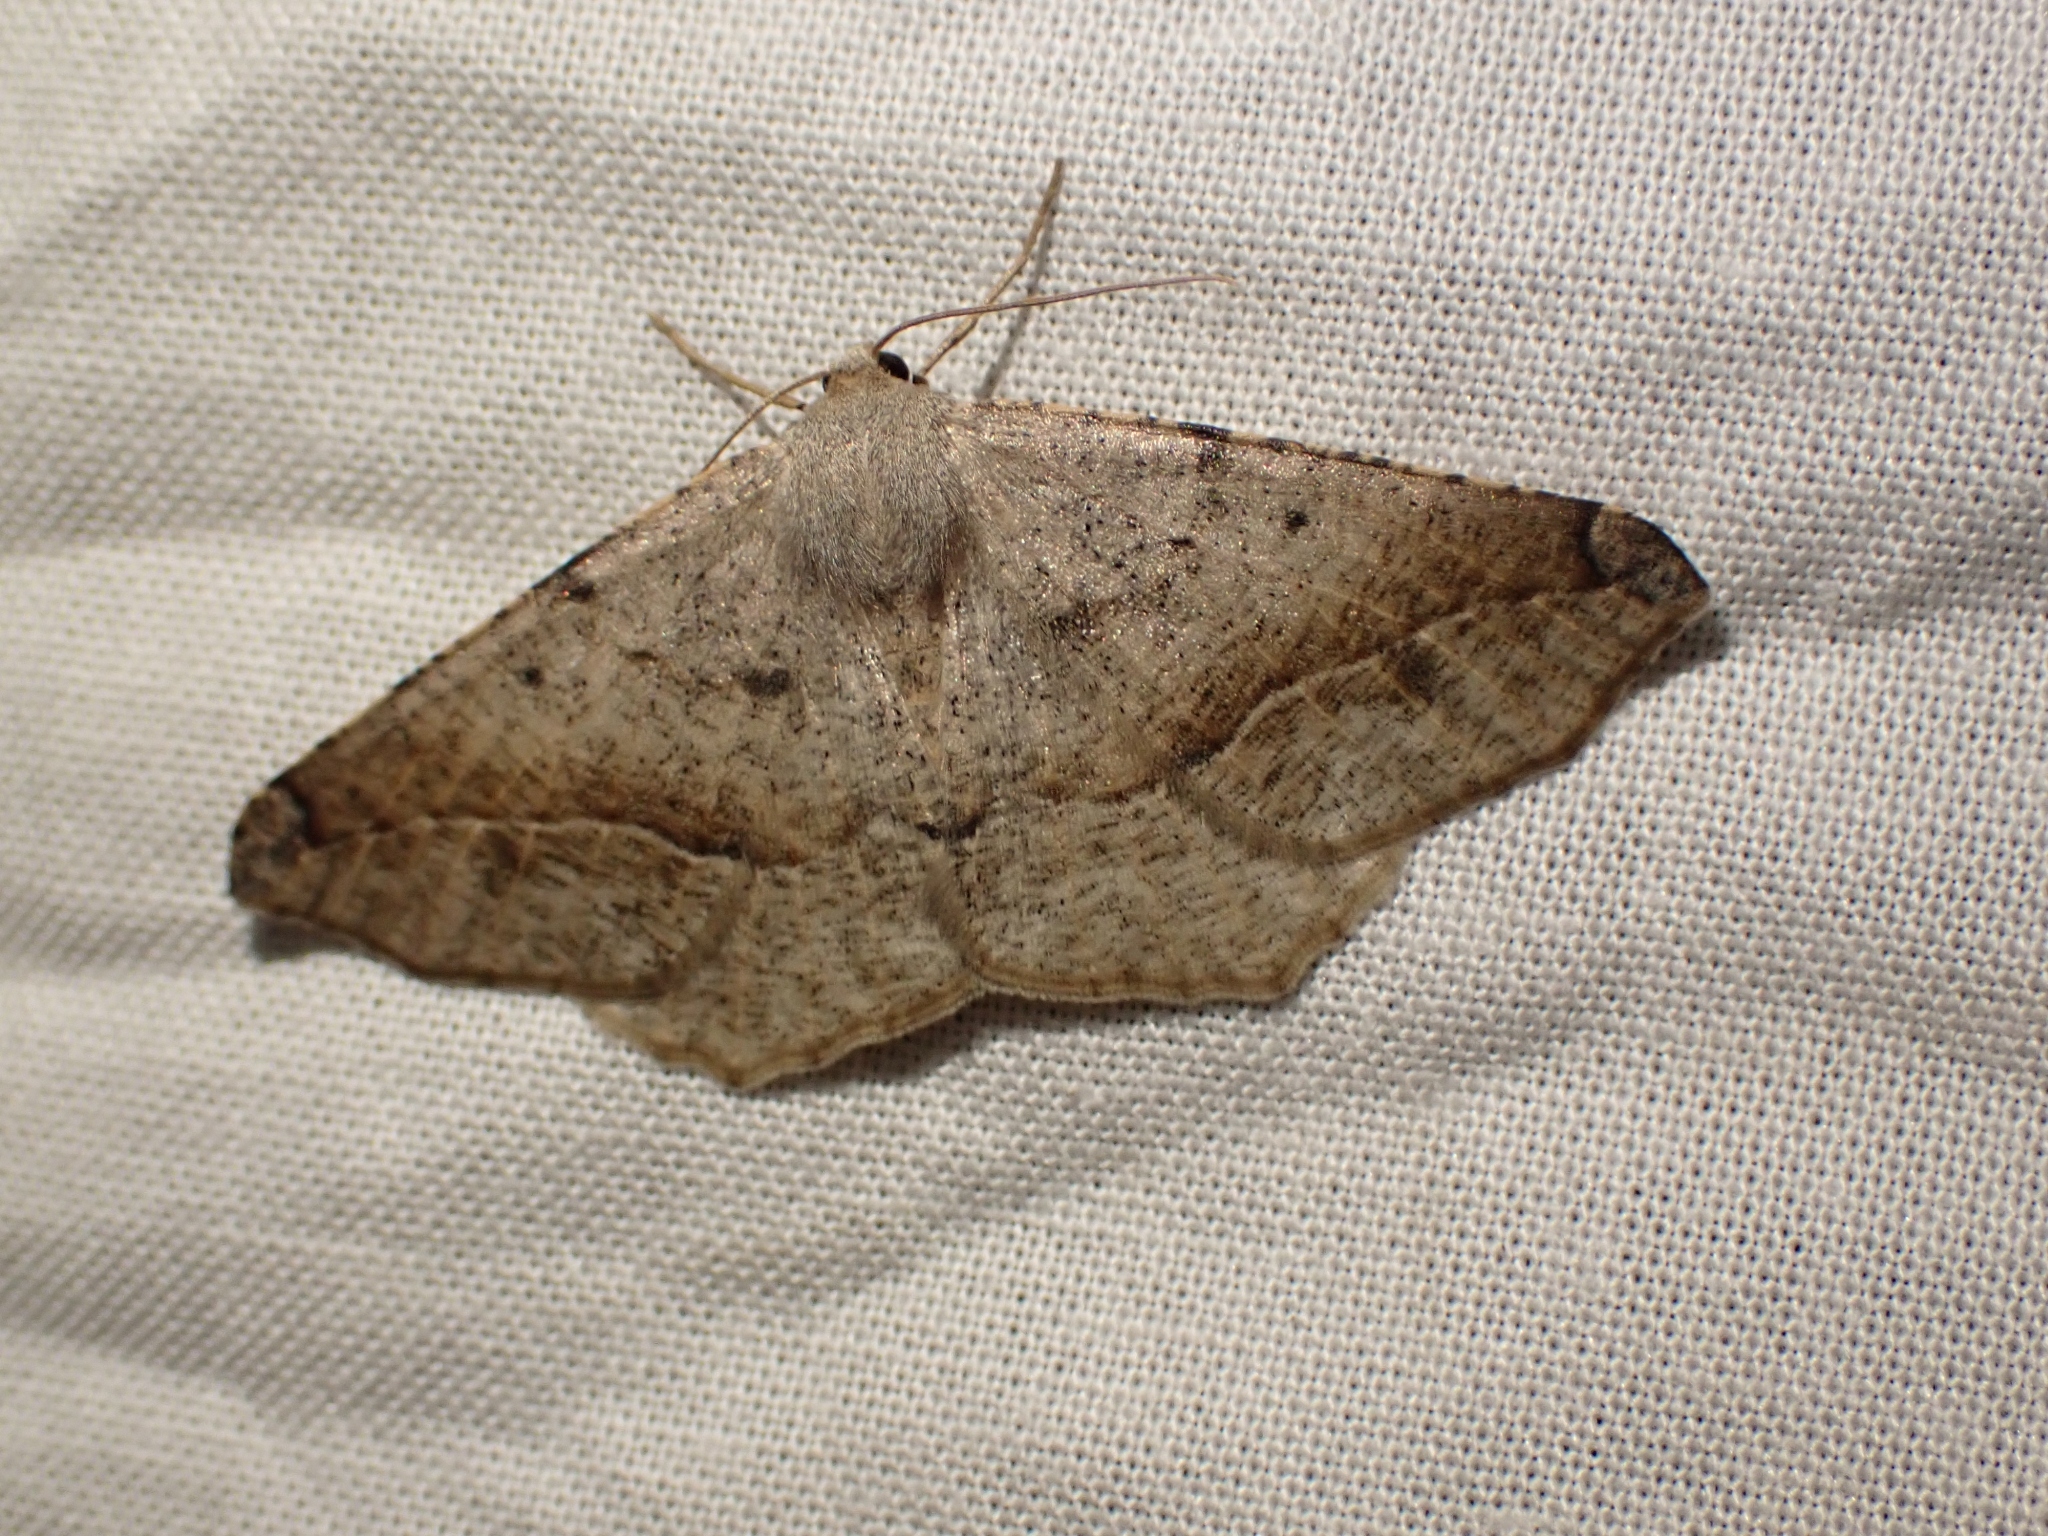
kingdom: Animalia
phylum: Arthropoda
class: Insecta
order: Lepidoptera
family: Geometridae
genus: Prochoerodes
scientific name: Prochoerodes forficaria
